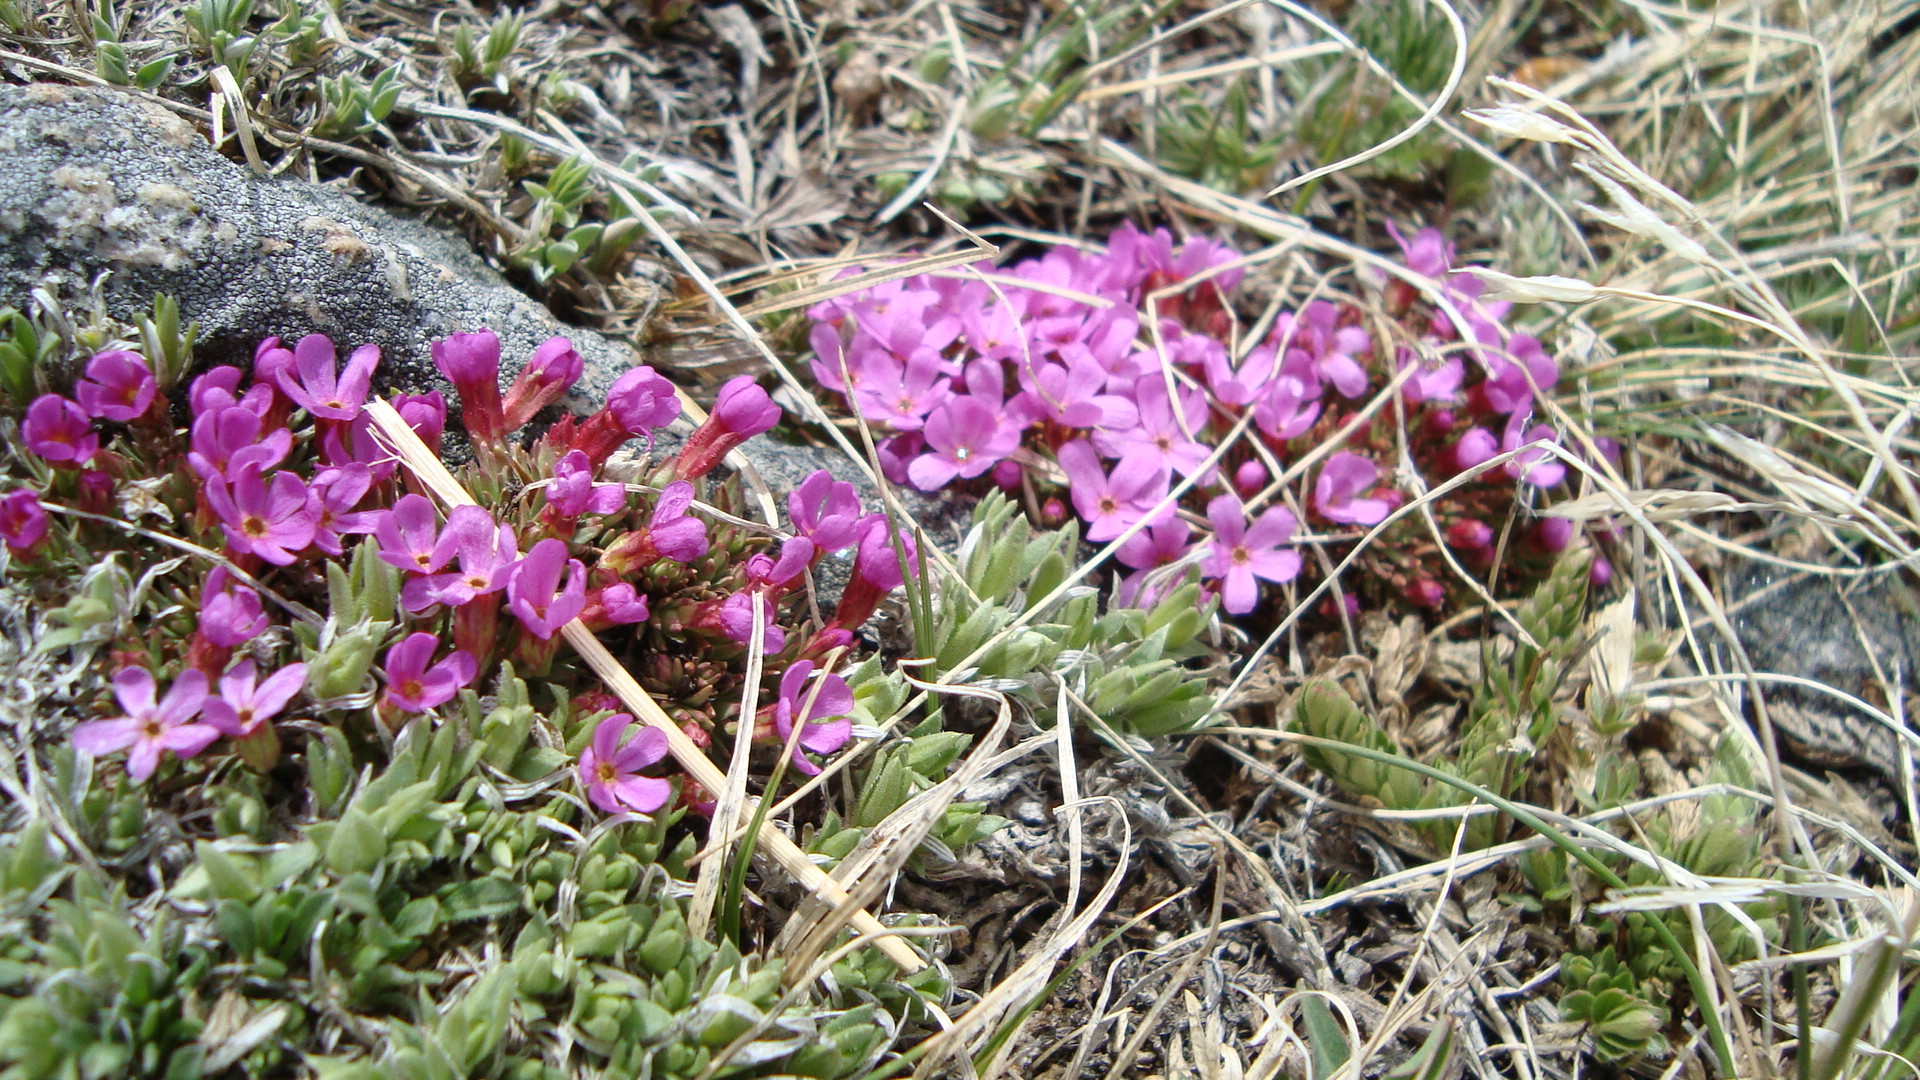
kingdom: Plantae
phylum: Tracheophyta
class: Magnoliopsida
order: Ericales
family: Primulaceae
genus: Androsace
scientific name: Androsace montana
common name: Rocky mountain dwarf-primrose
